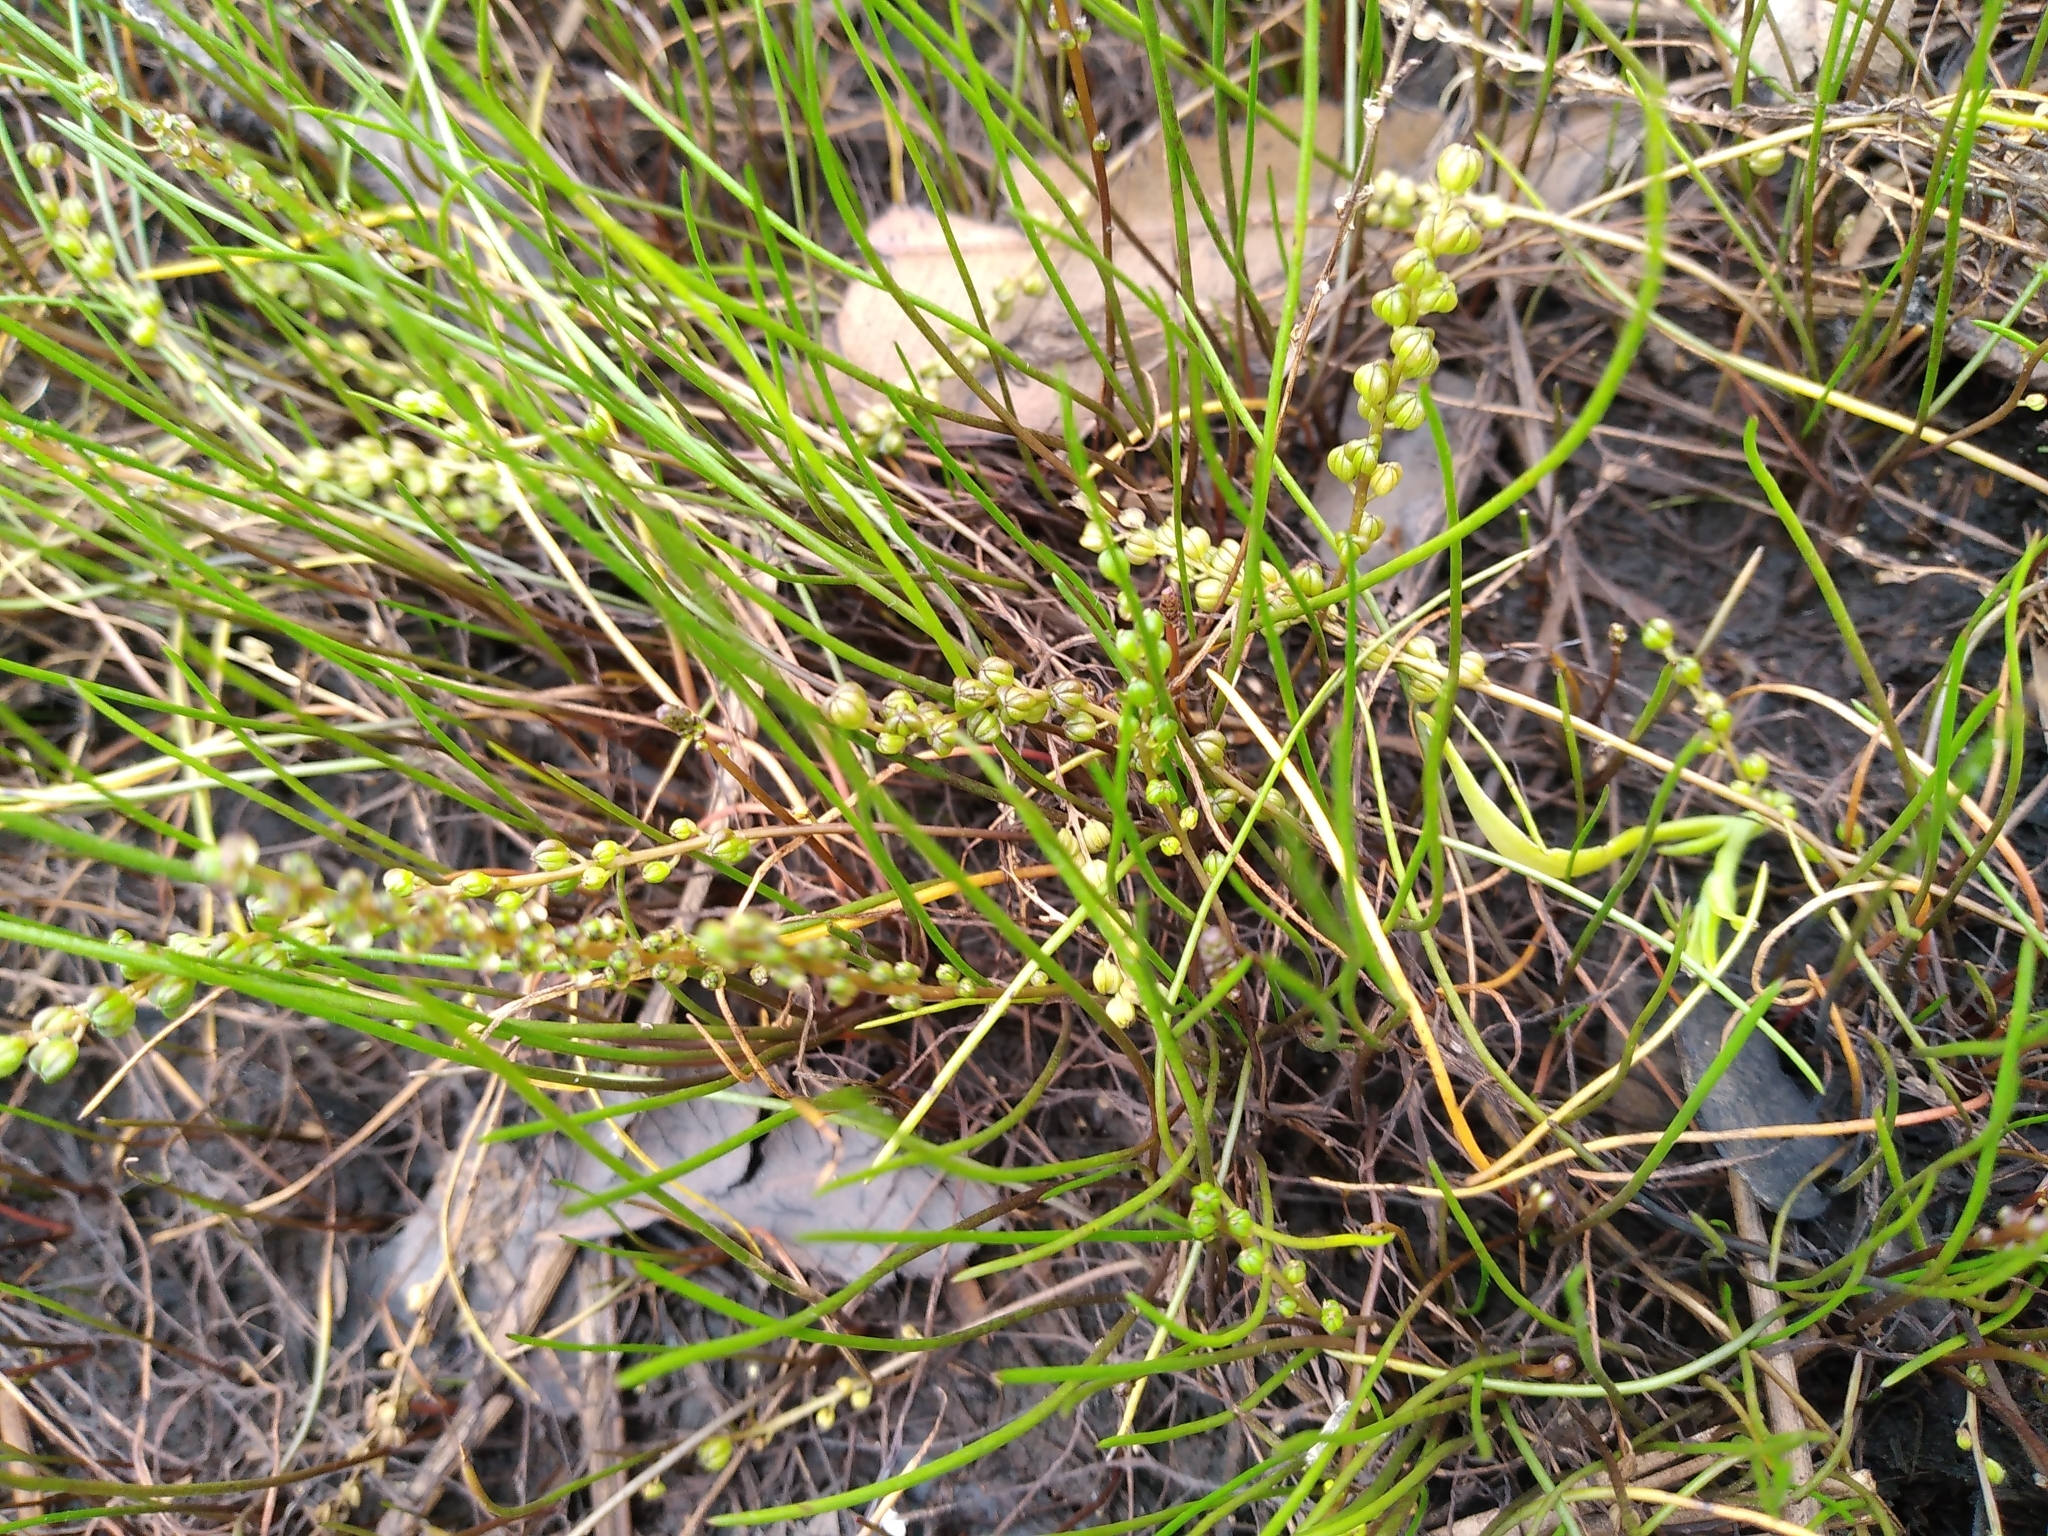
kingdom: Plantae
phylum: Tracheophyta
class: Liliopsida
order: Alismatales
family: Juncaginaceae
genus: Triglochin
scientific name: Triglochin striata
